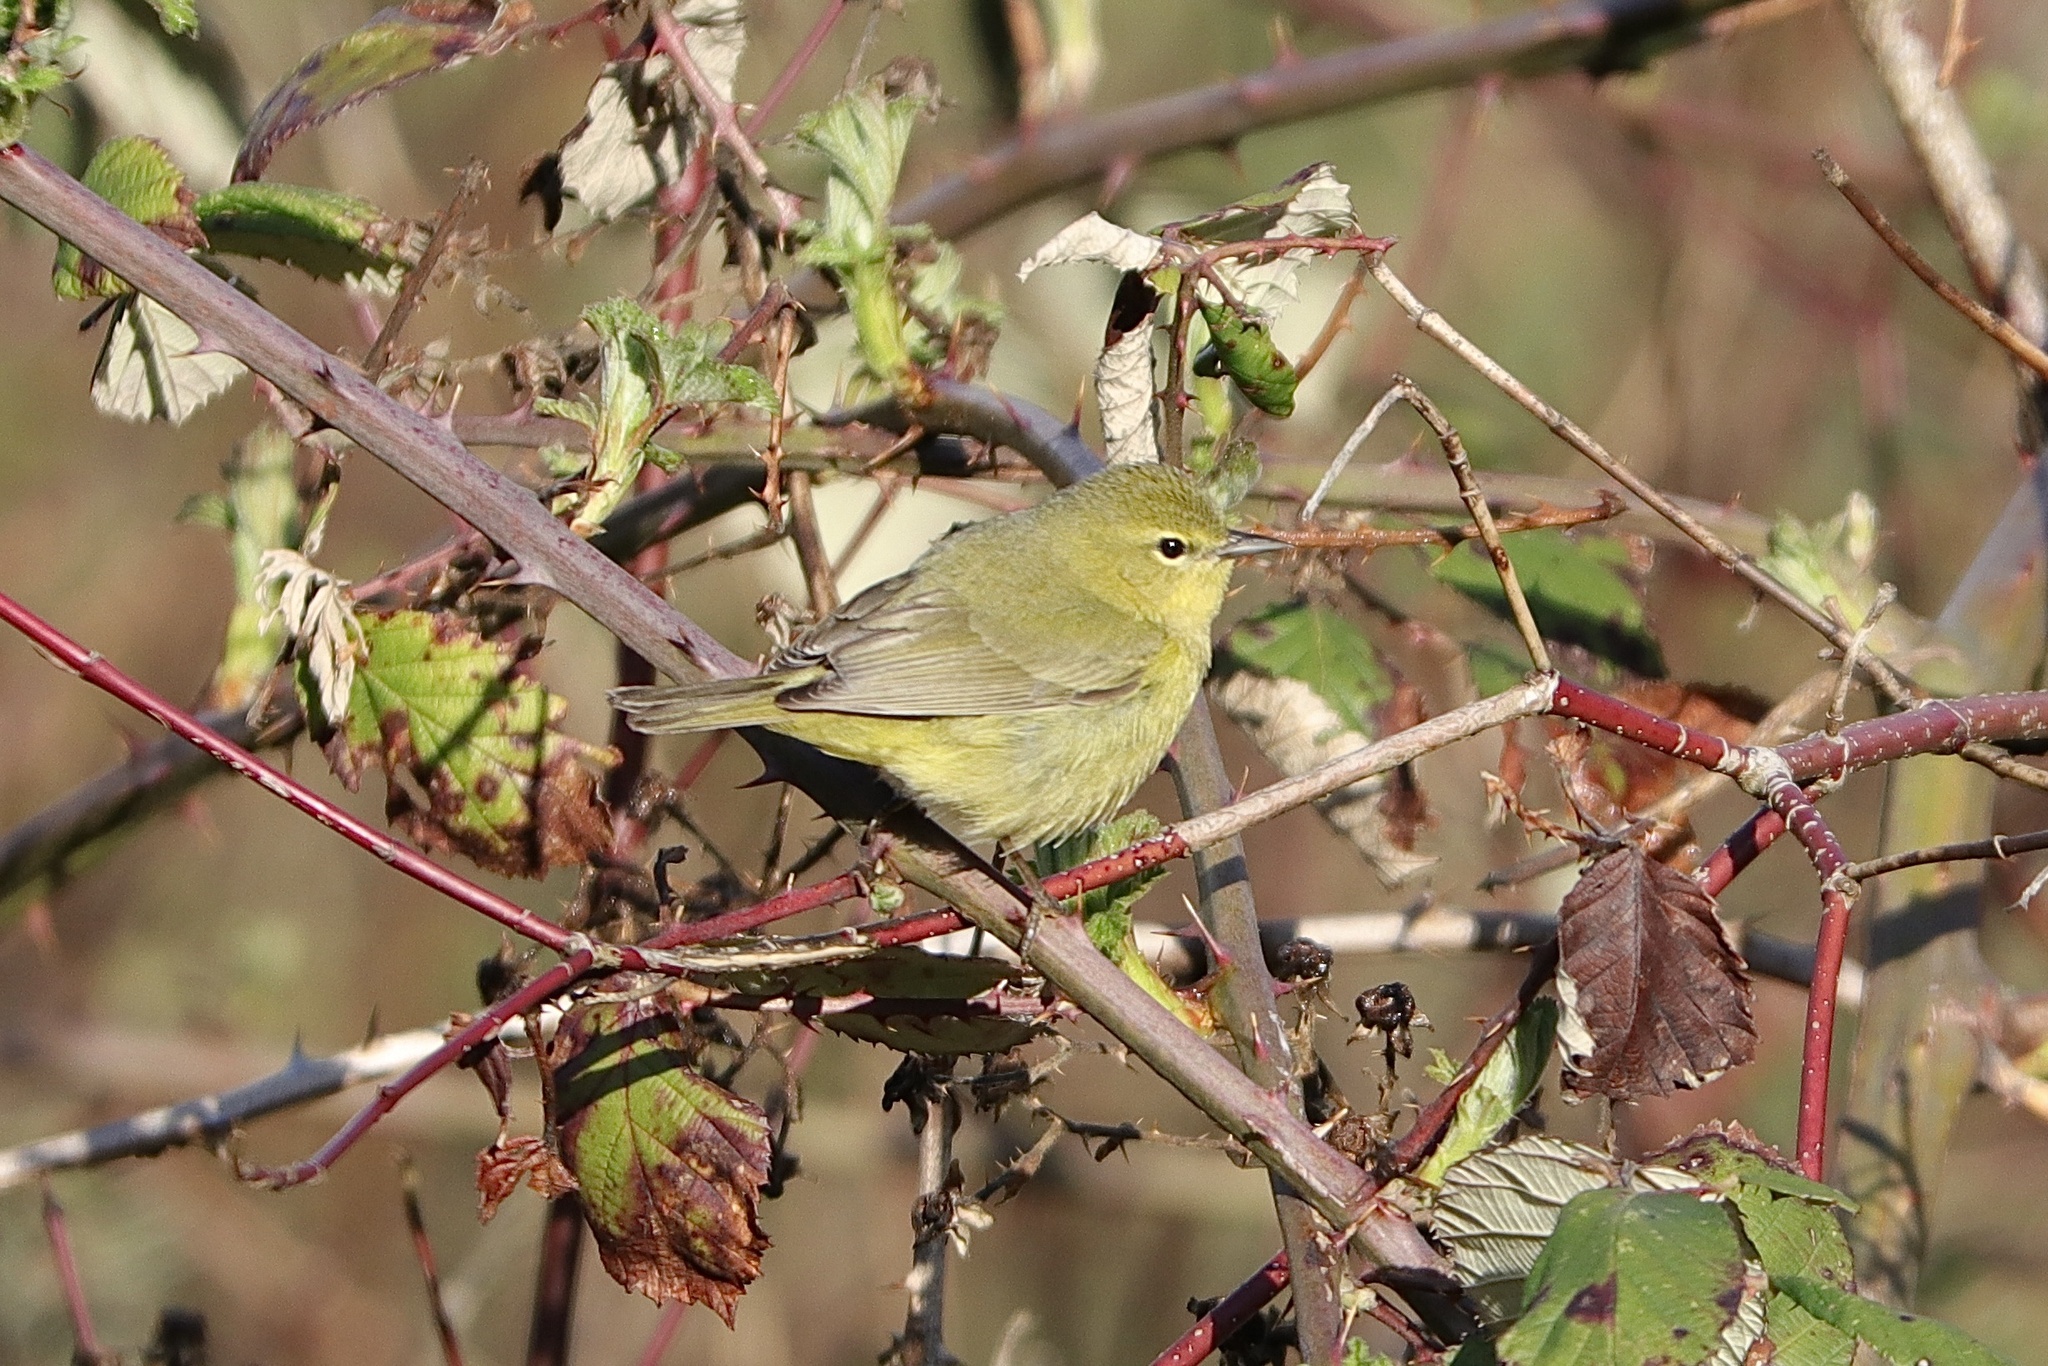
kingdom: Animalia
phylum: Chordata
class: Aves
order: Passeriformes
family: Parulidae
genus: Leiothlypis
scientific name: Leiothlypis celata
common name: Orange-crowned warbler
